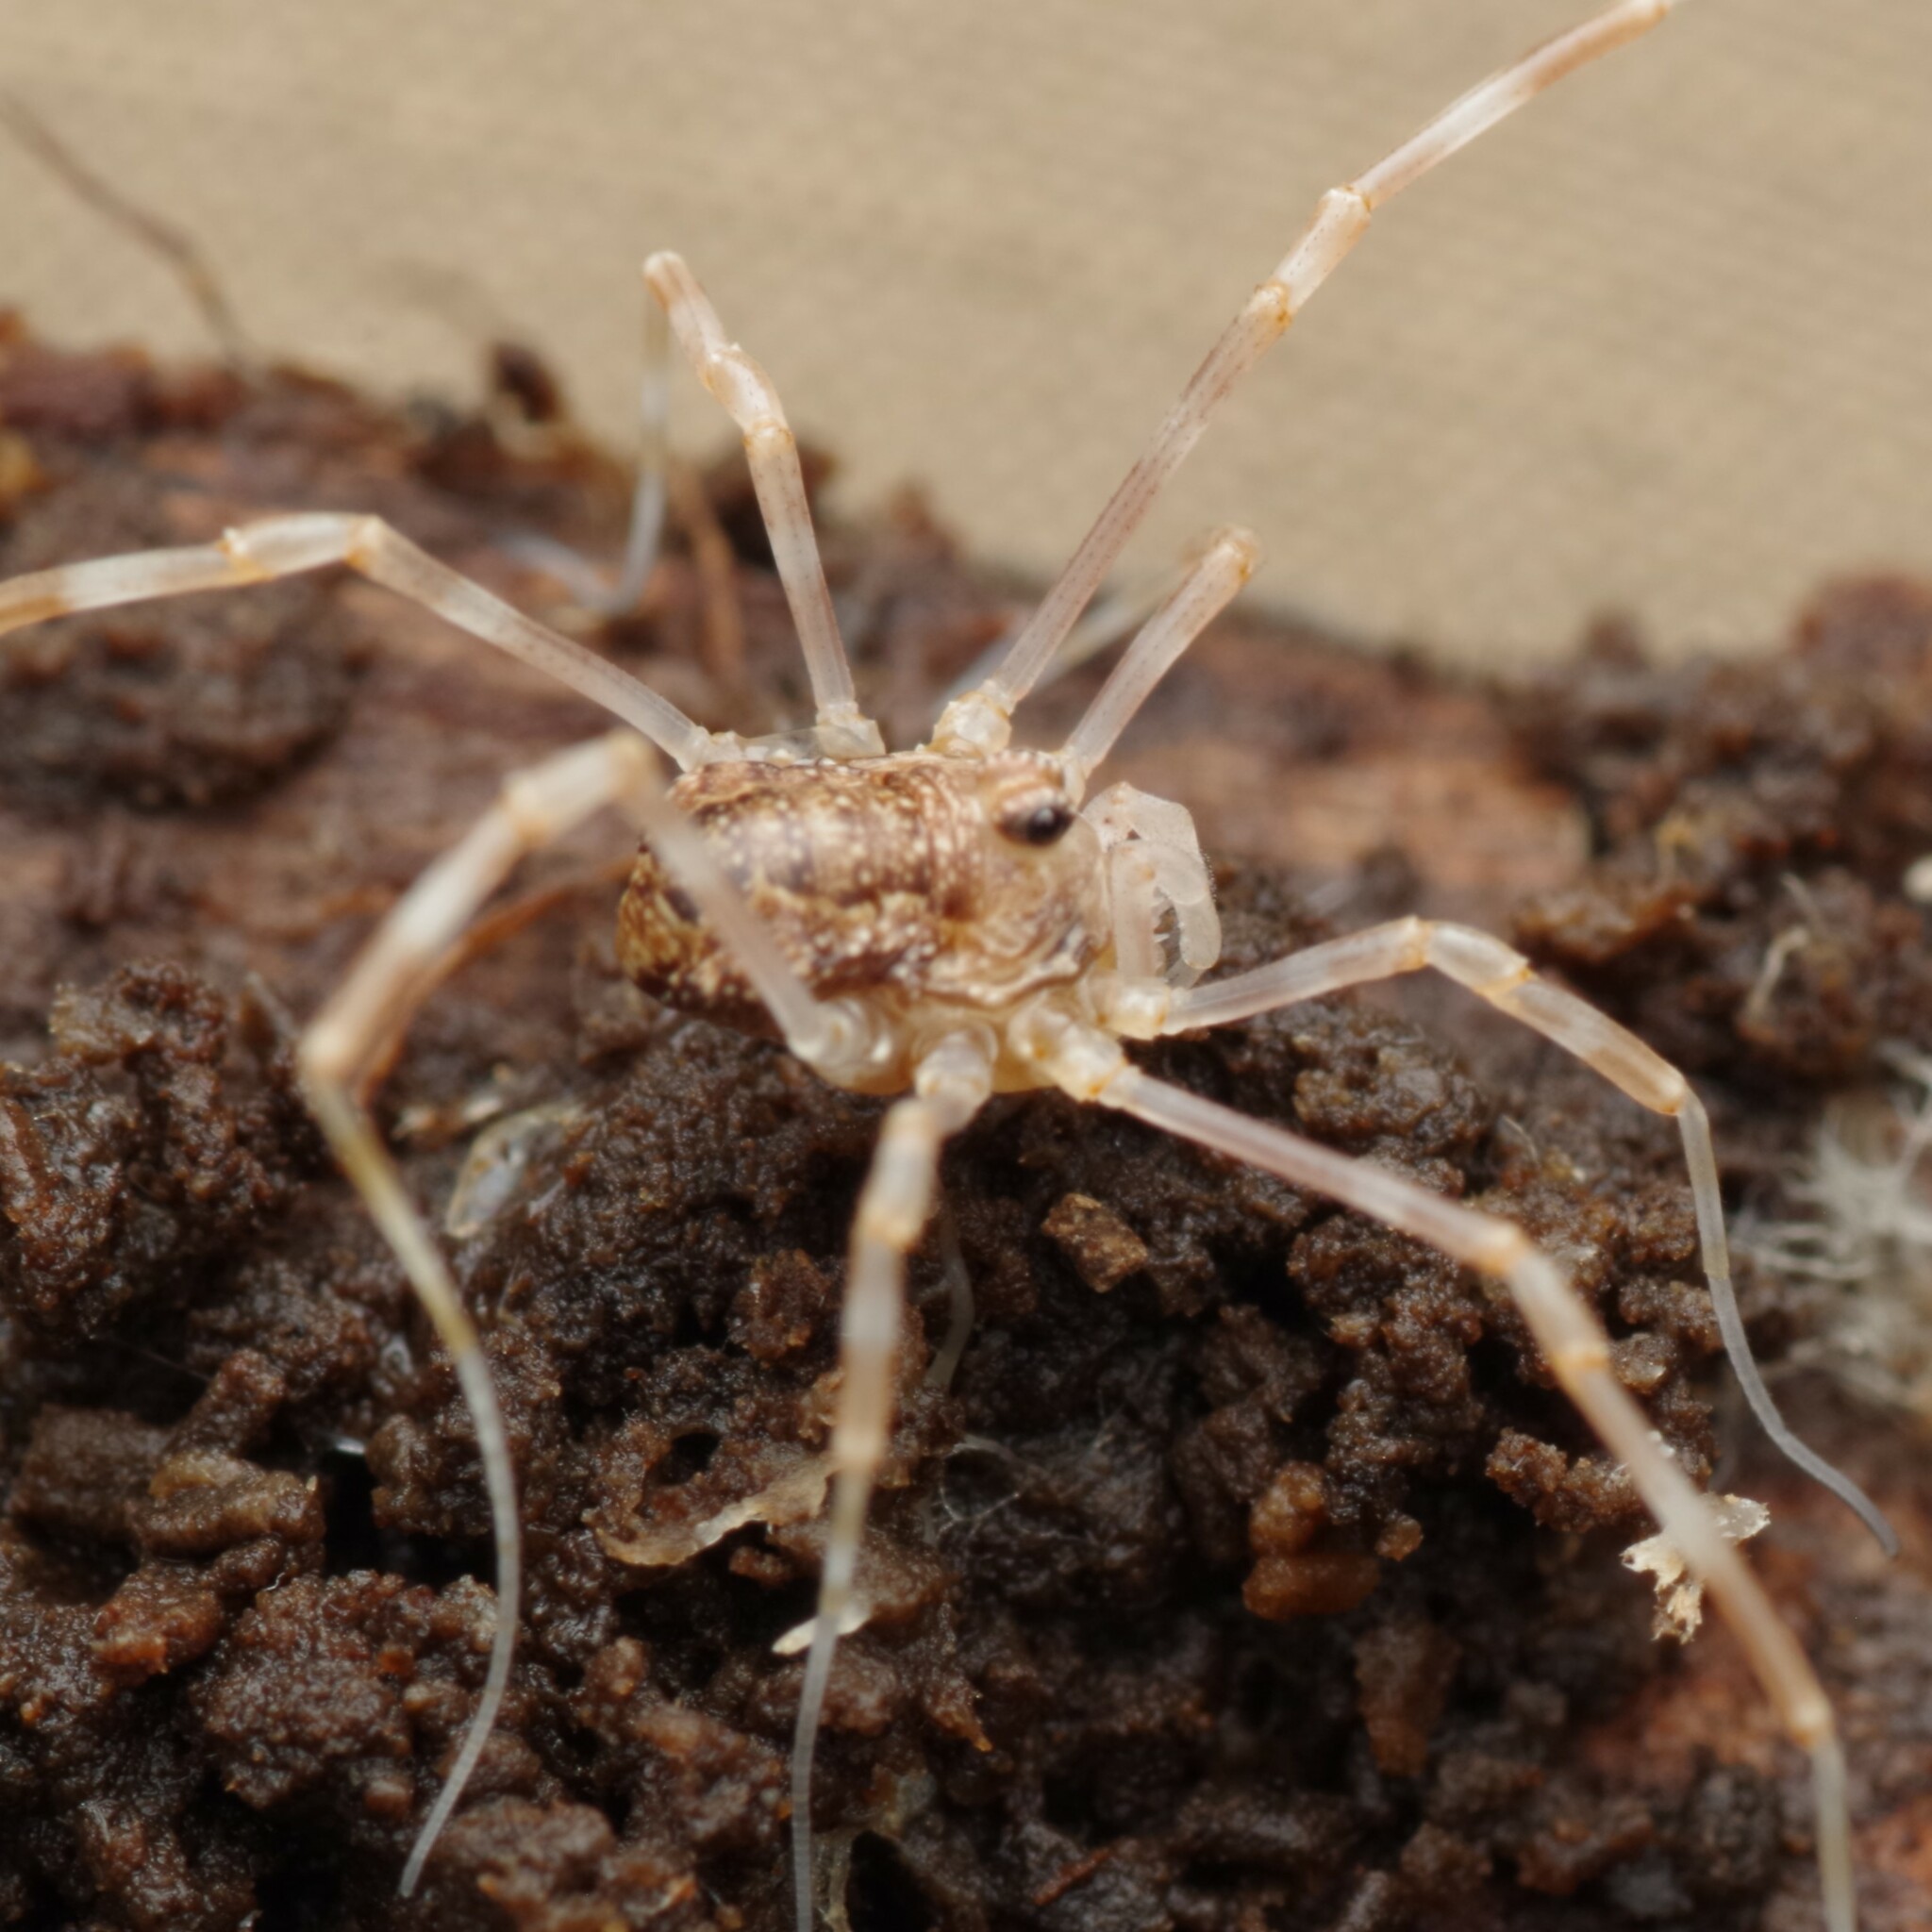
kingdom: Animalia
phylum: Arthropoda
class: Arachnida
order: Opiliones
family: Phalangiidae
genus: Rilaena
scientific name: Rilaena triangularis
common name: Spring harvestman
